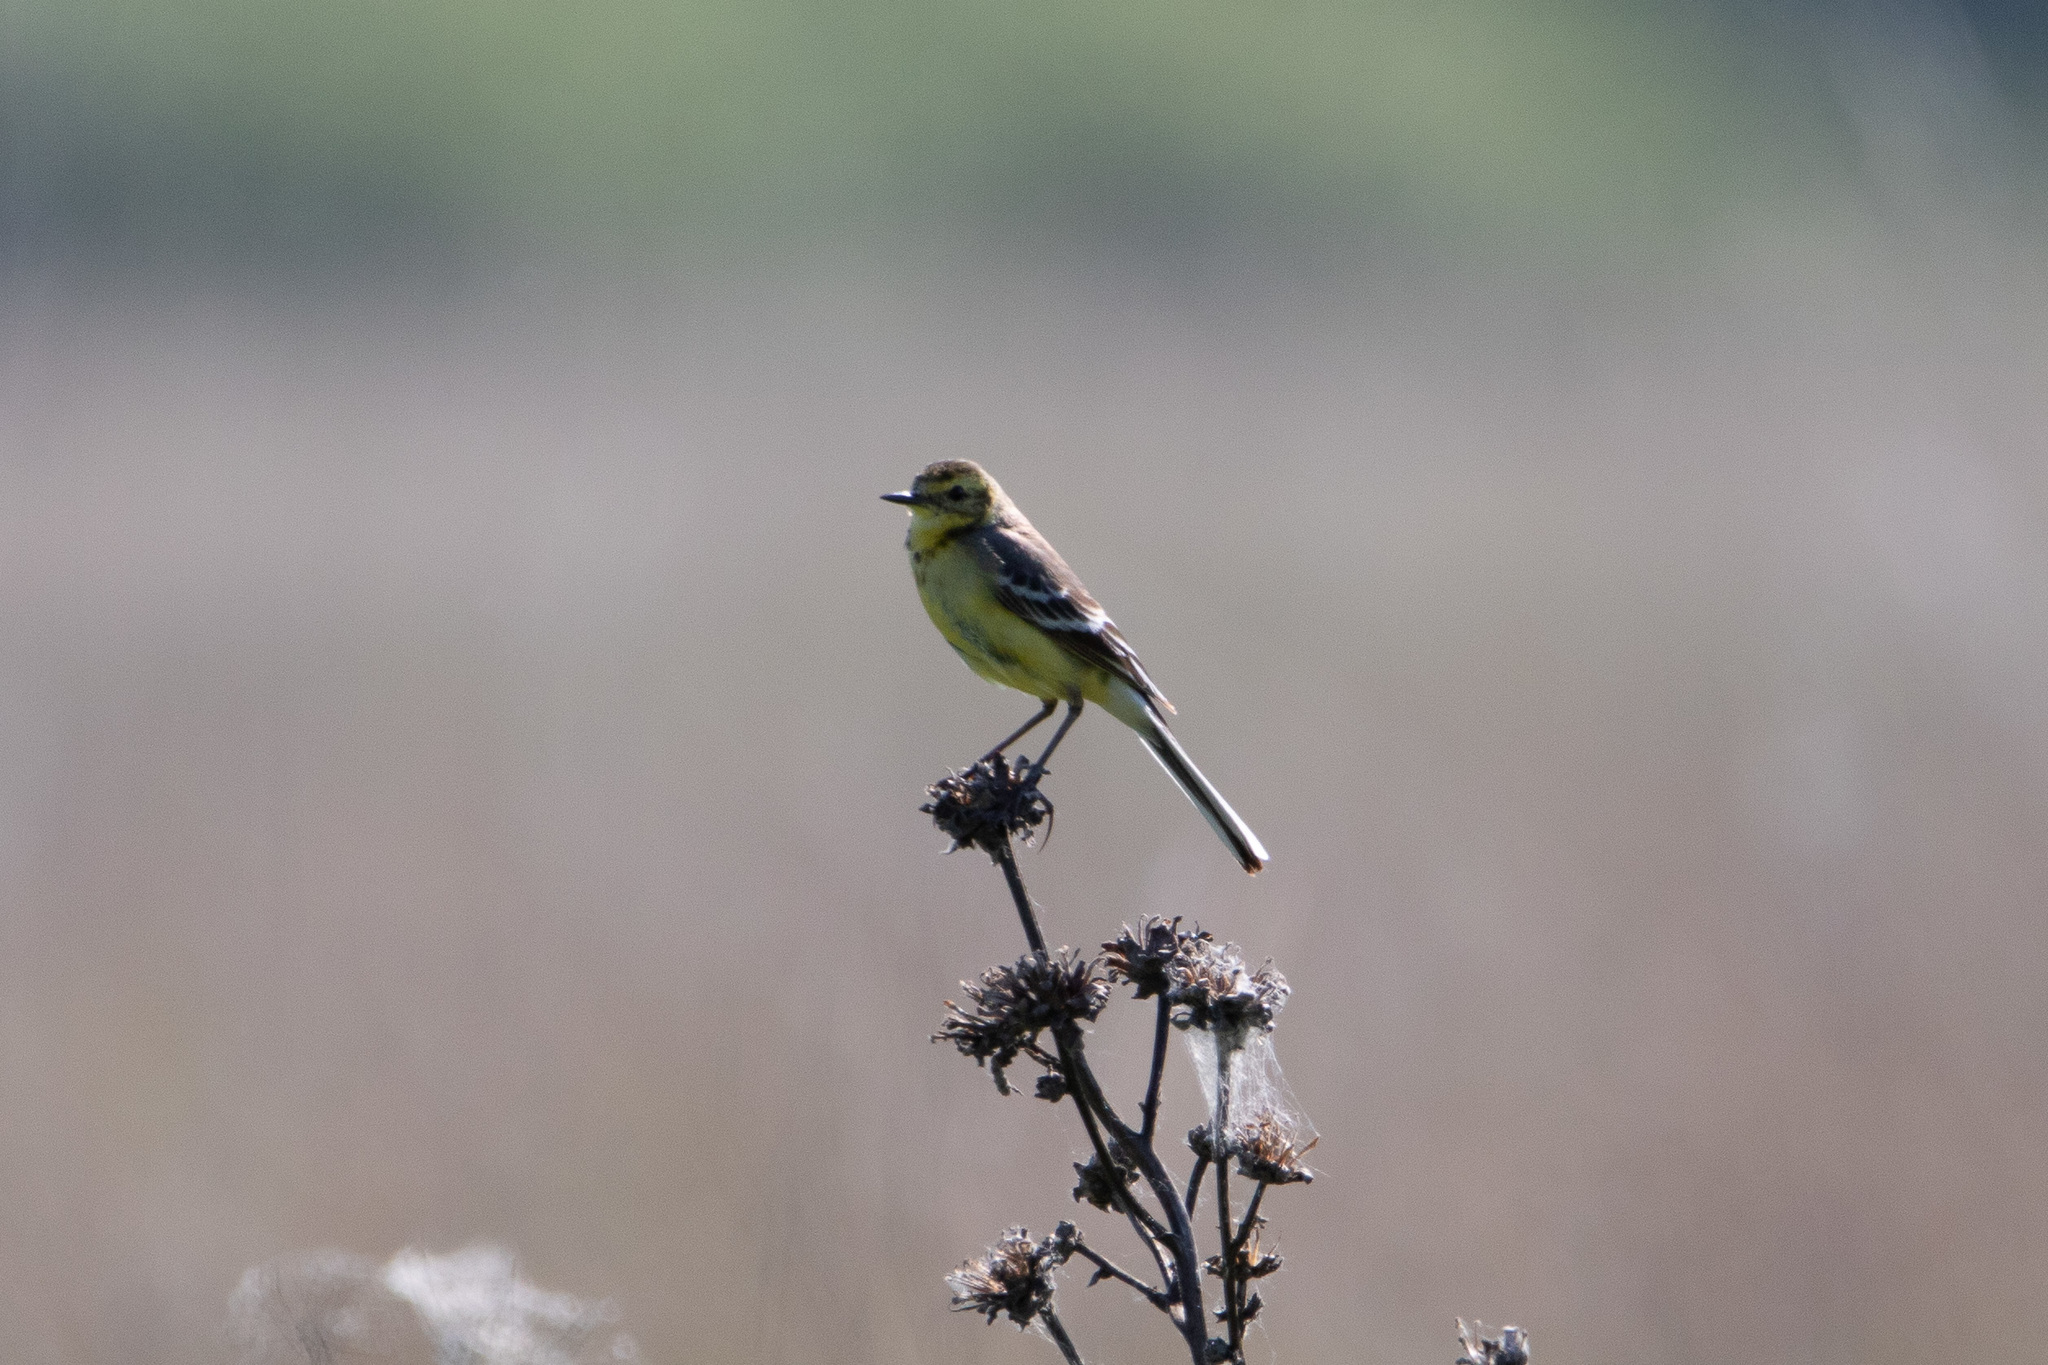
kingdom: Animalia
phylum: Chordata
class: Aves
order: Passeriformes
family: Motacillidae
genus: Motacilla
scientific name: Motacilla citreola
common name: Citrine wagtail
